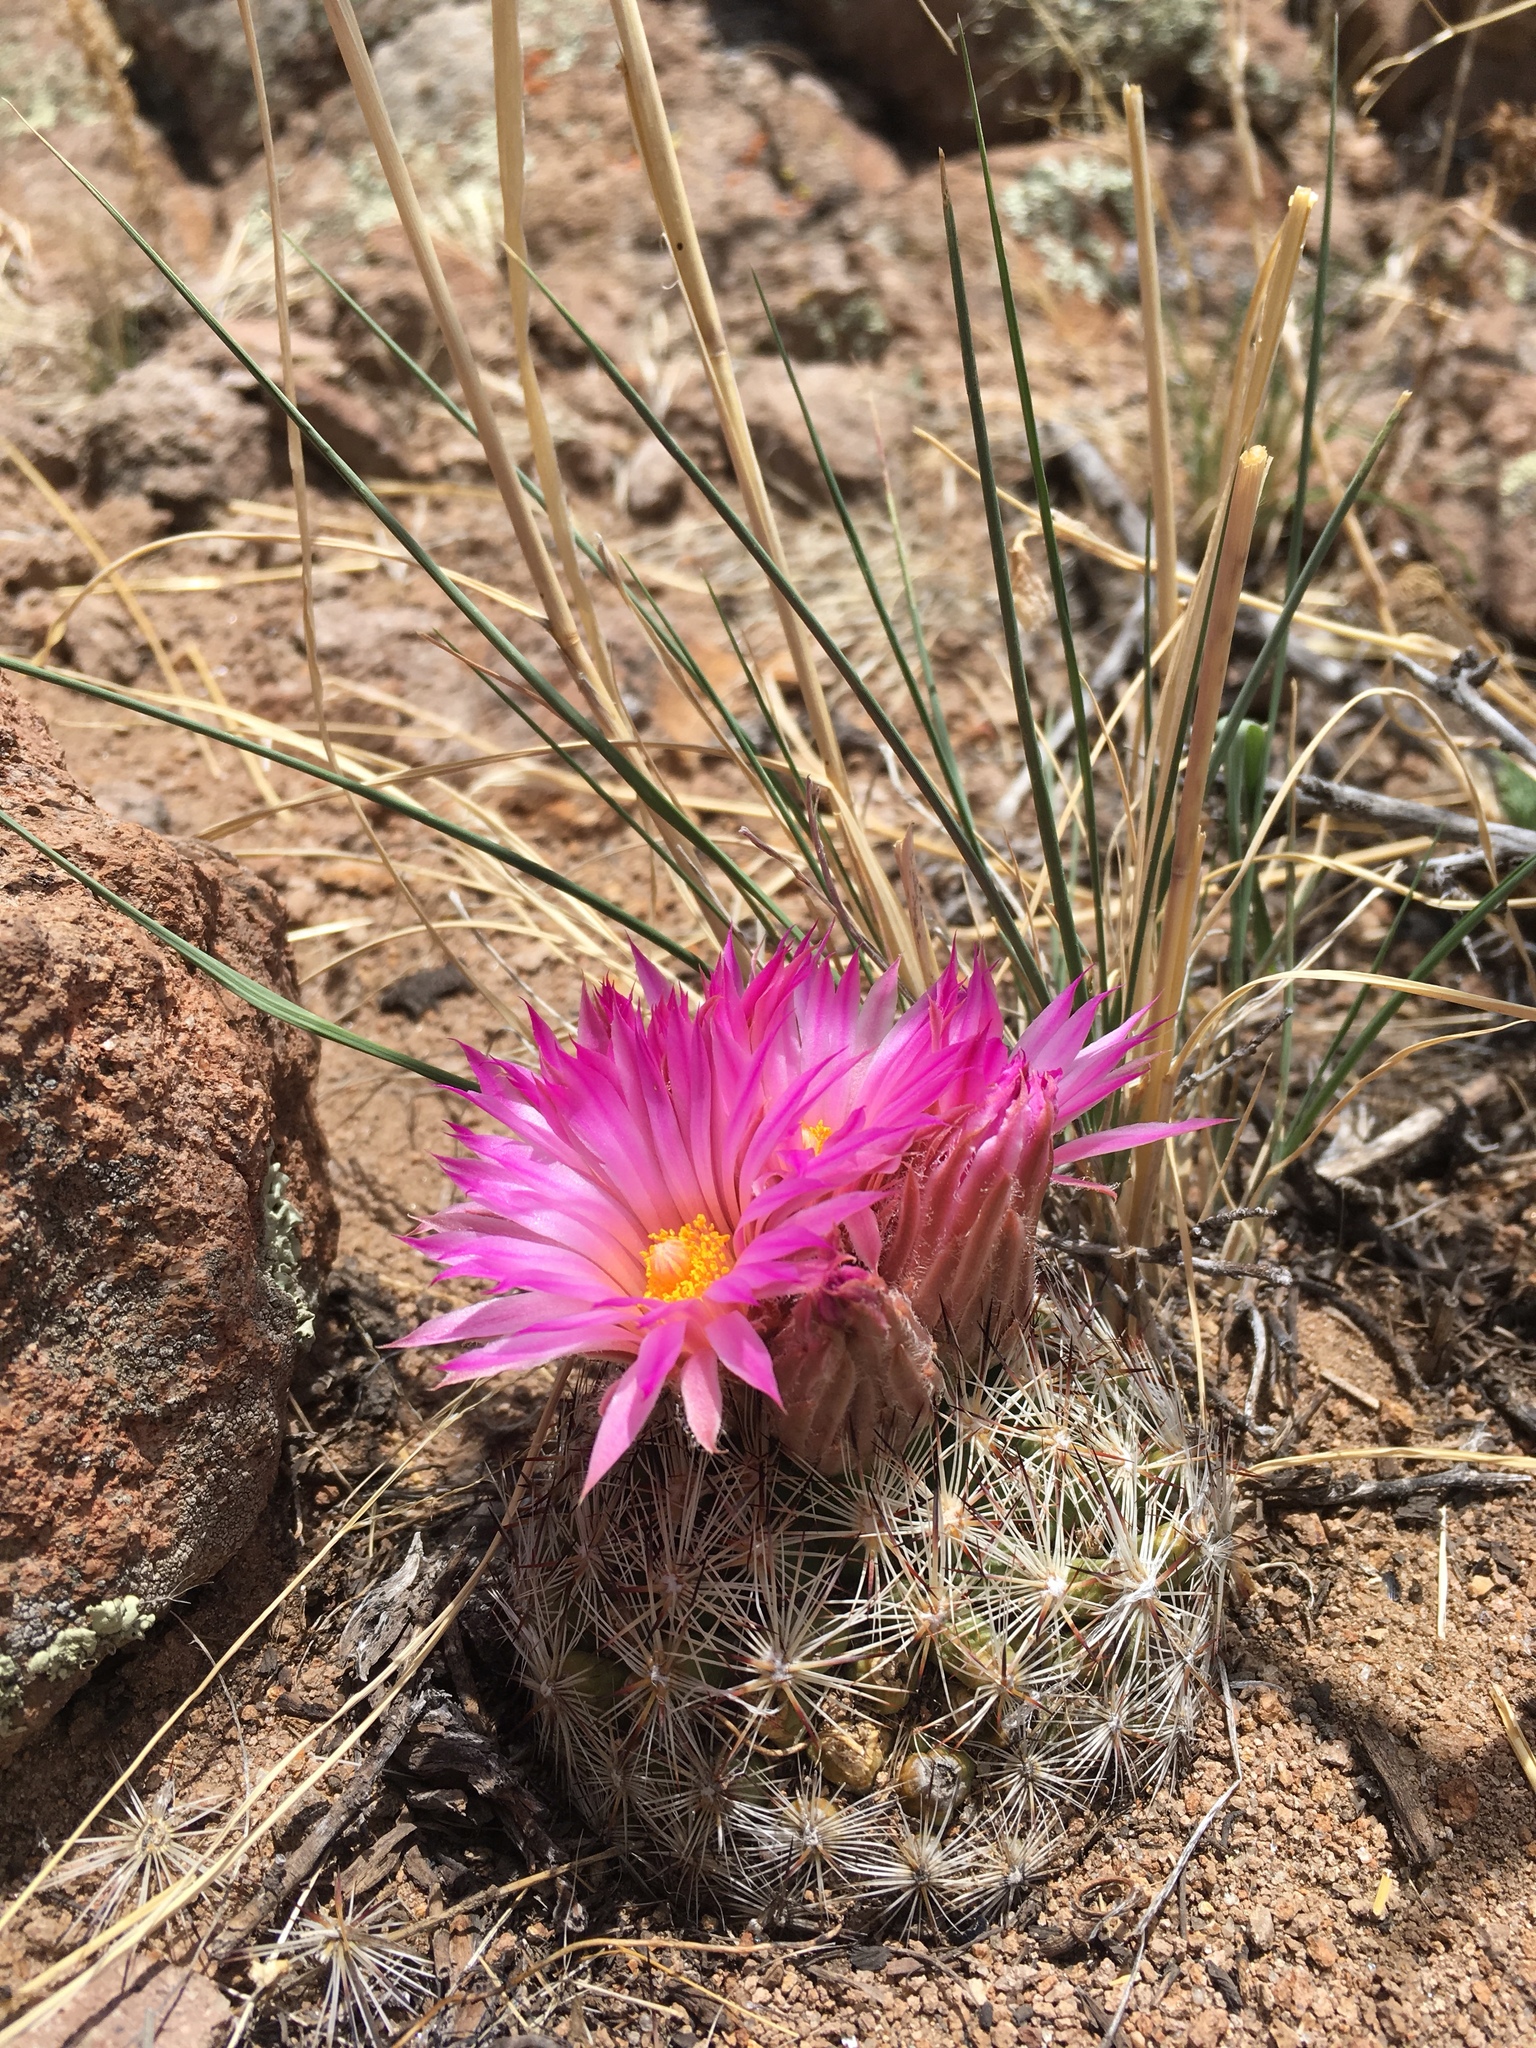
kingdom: Plantae
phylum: Tracheophyta
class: Magnoliopsida
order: Caryophyllales
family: Cactaceae
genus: Pelecyphora
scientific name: Pelecyphora vivipara
